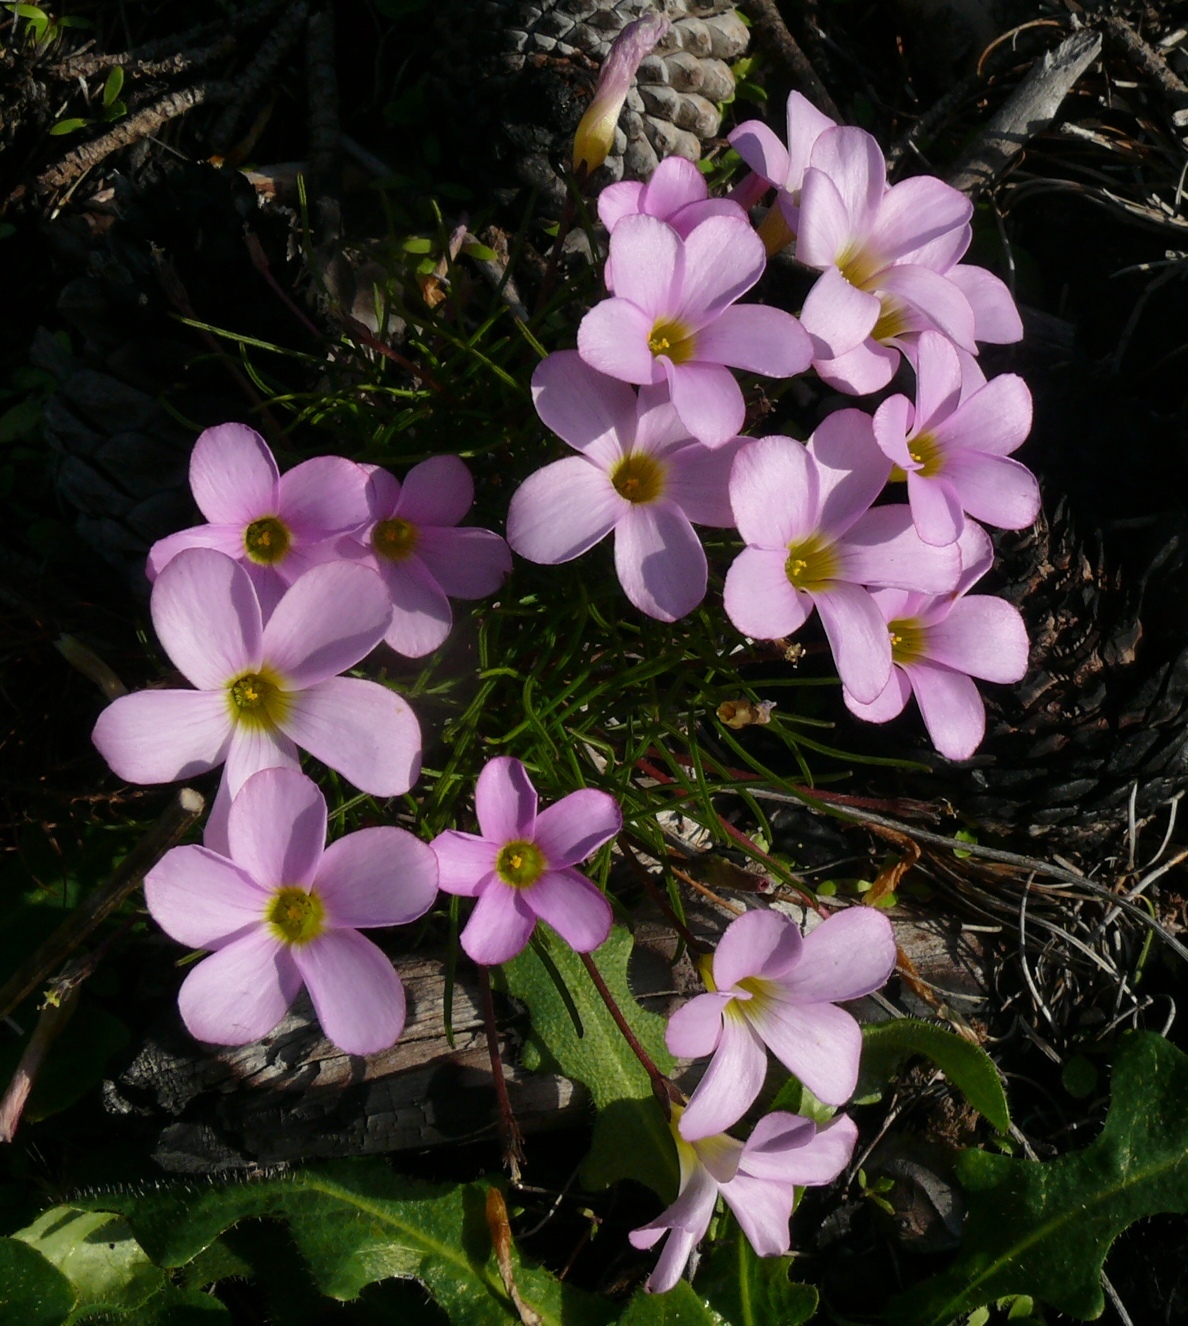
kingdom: Plantae
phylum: Tracheophyta
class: Magnoliopsida
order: Oxalidales
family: Oxalidaceae
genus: Oxalis
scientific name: Oxalis polyphylla
